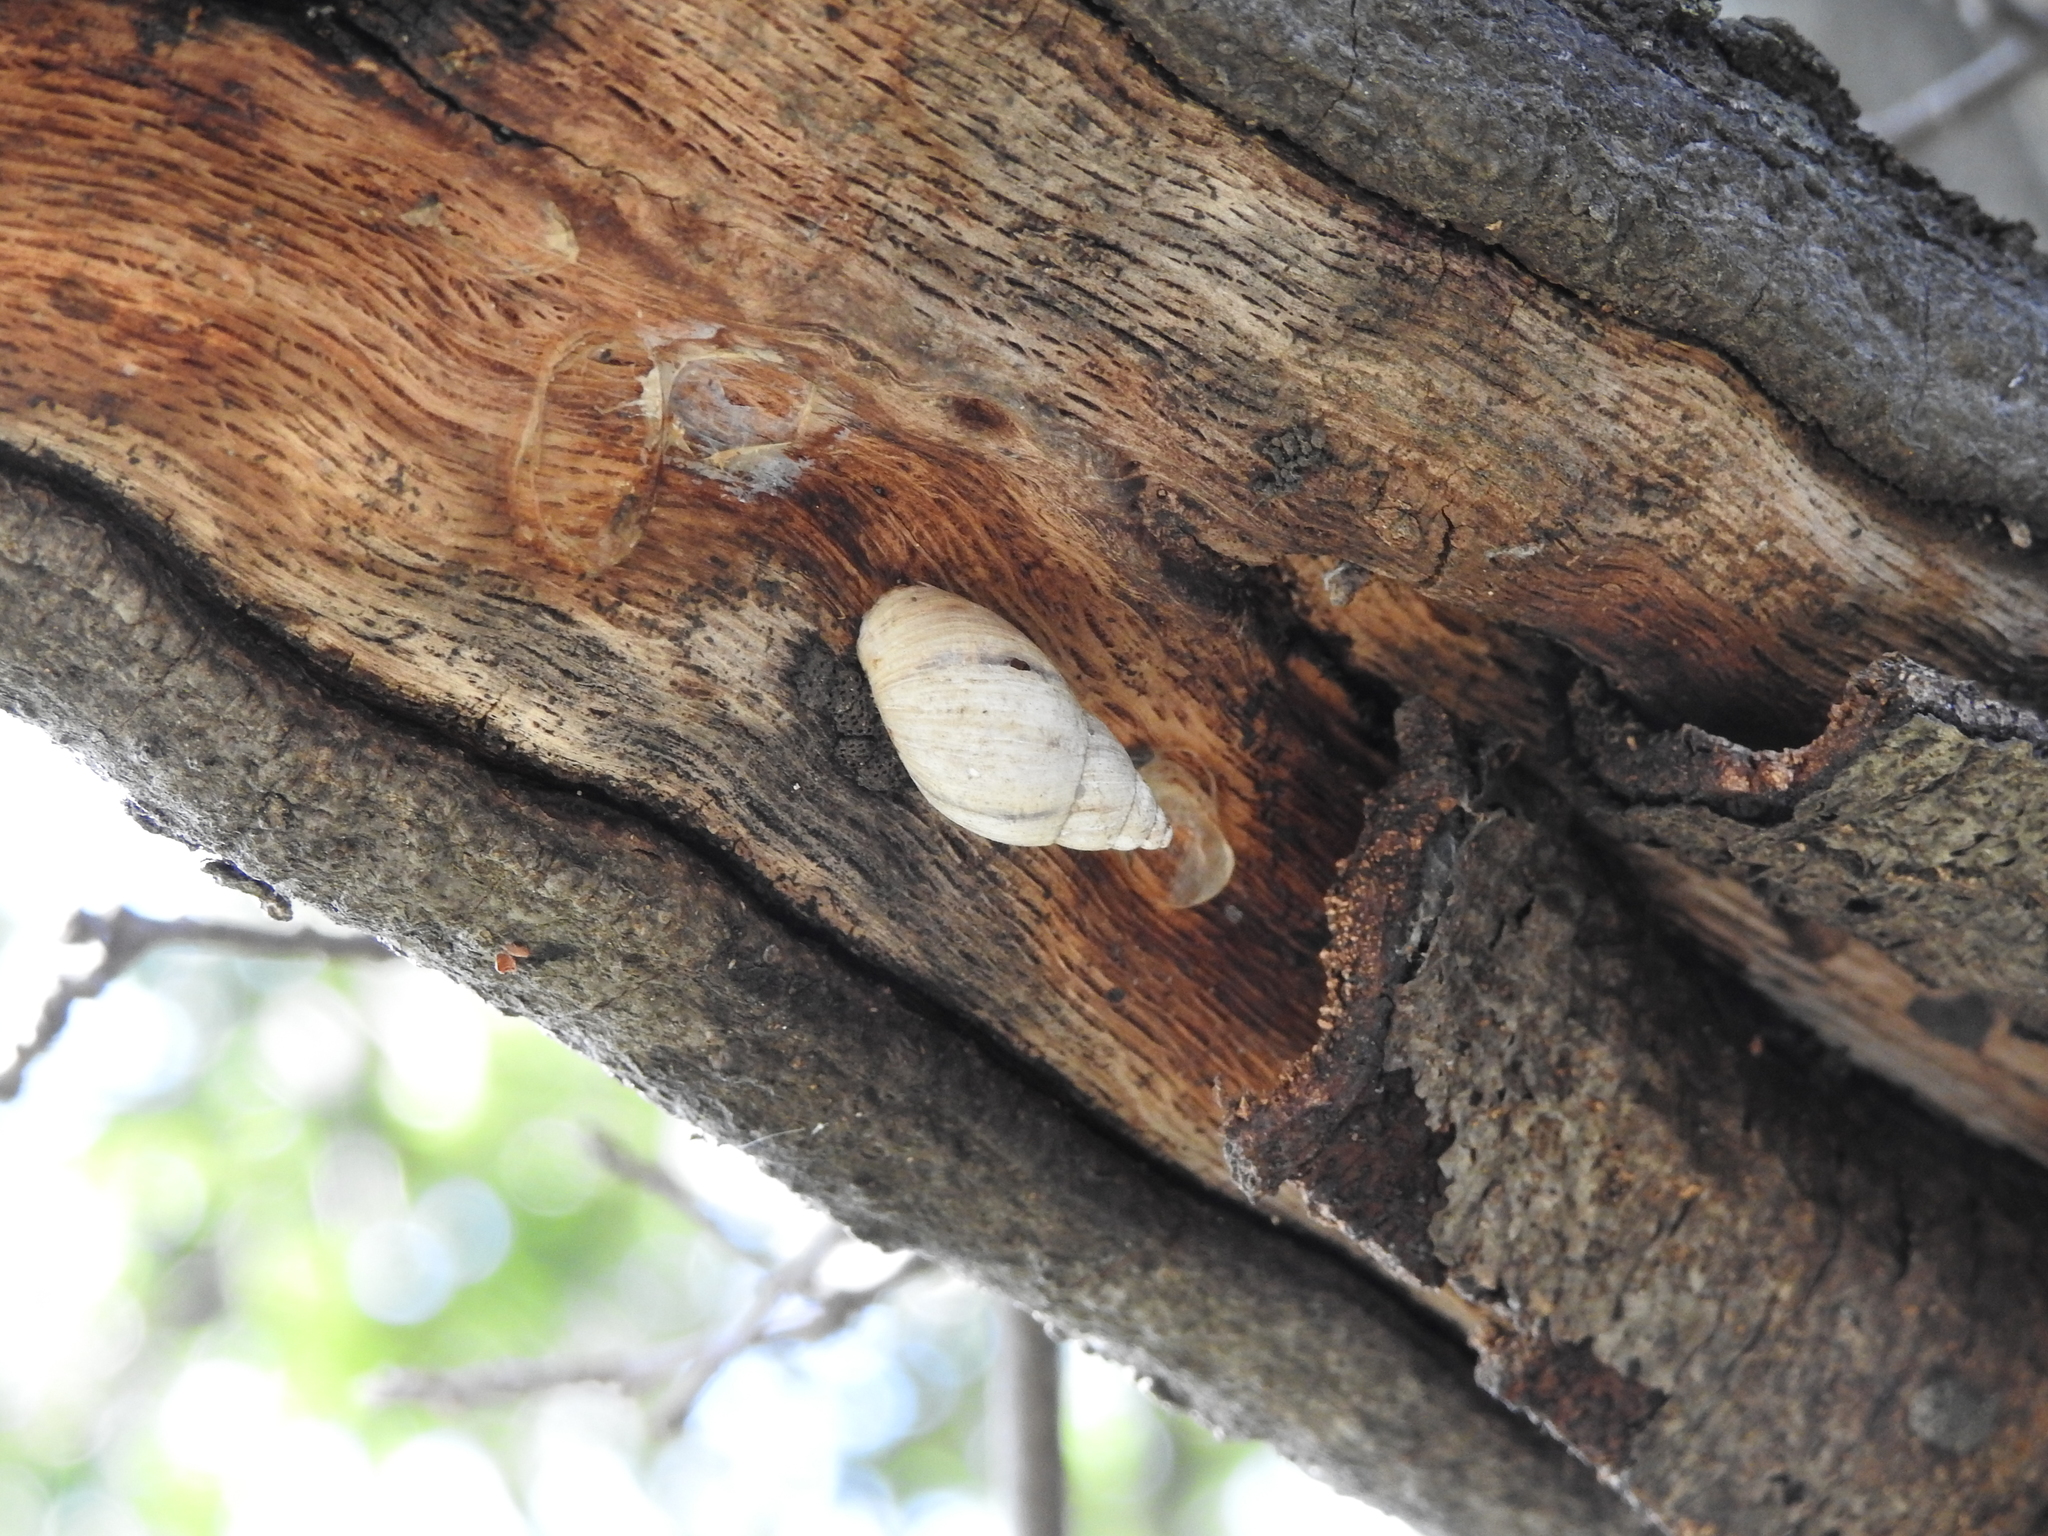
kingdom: Animalia
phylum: Mollusca
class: Gastropoda
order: Stylommatophora
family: Bulimulidae
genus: Drymaeus
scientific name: Drymaeus
